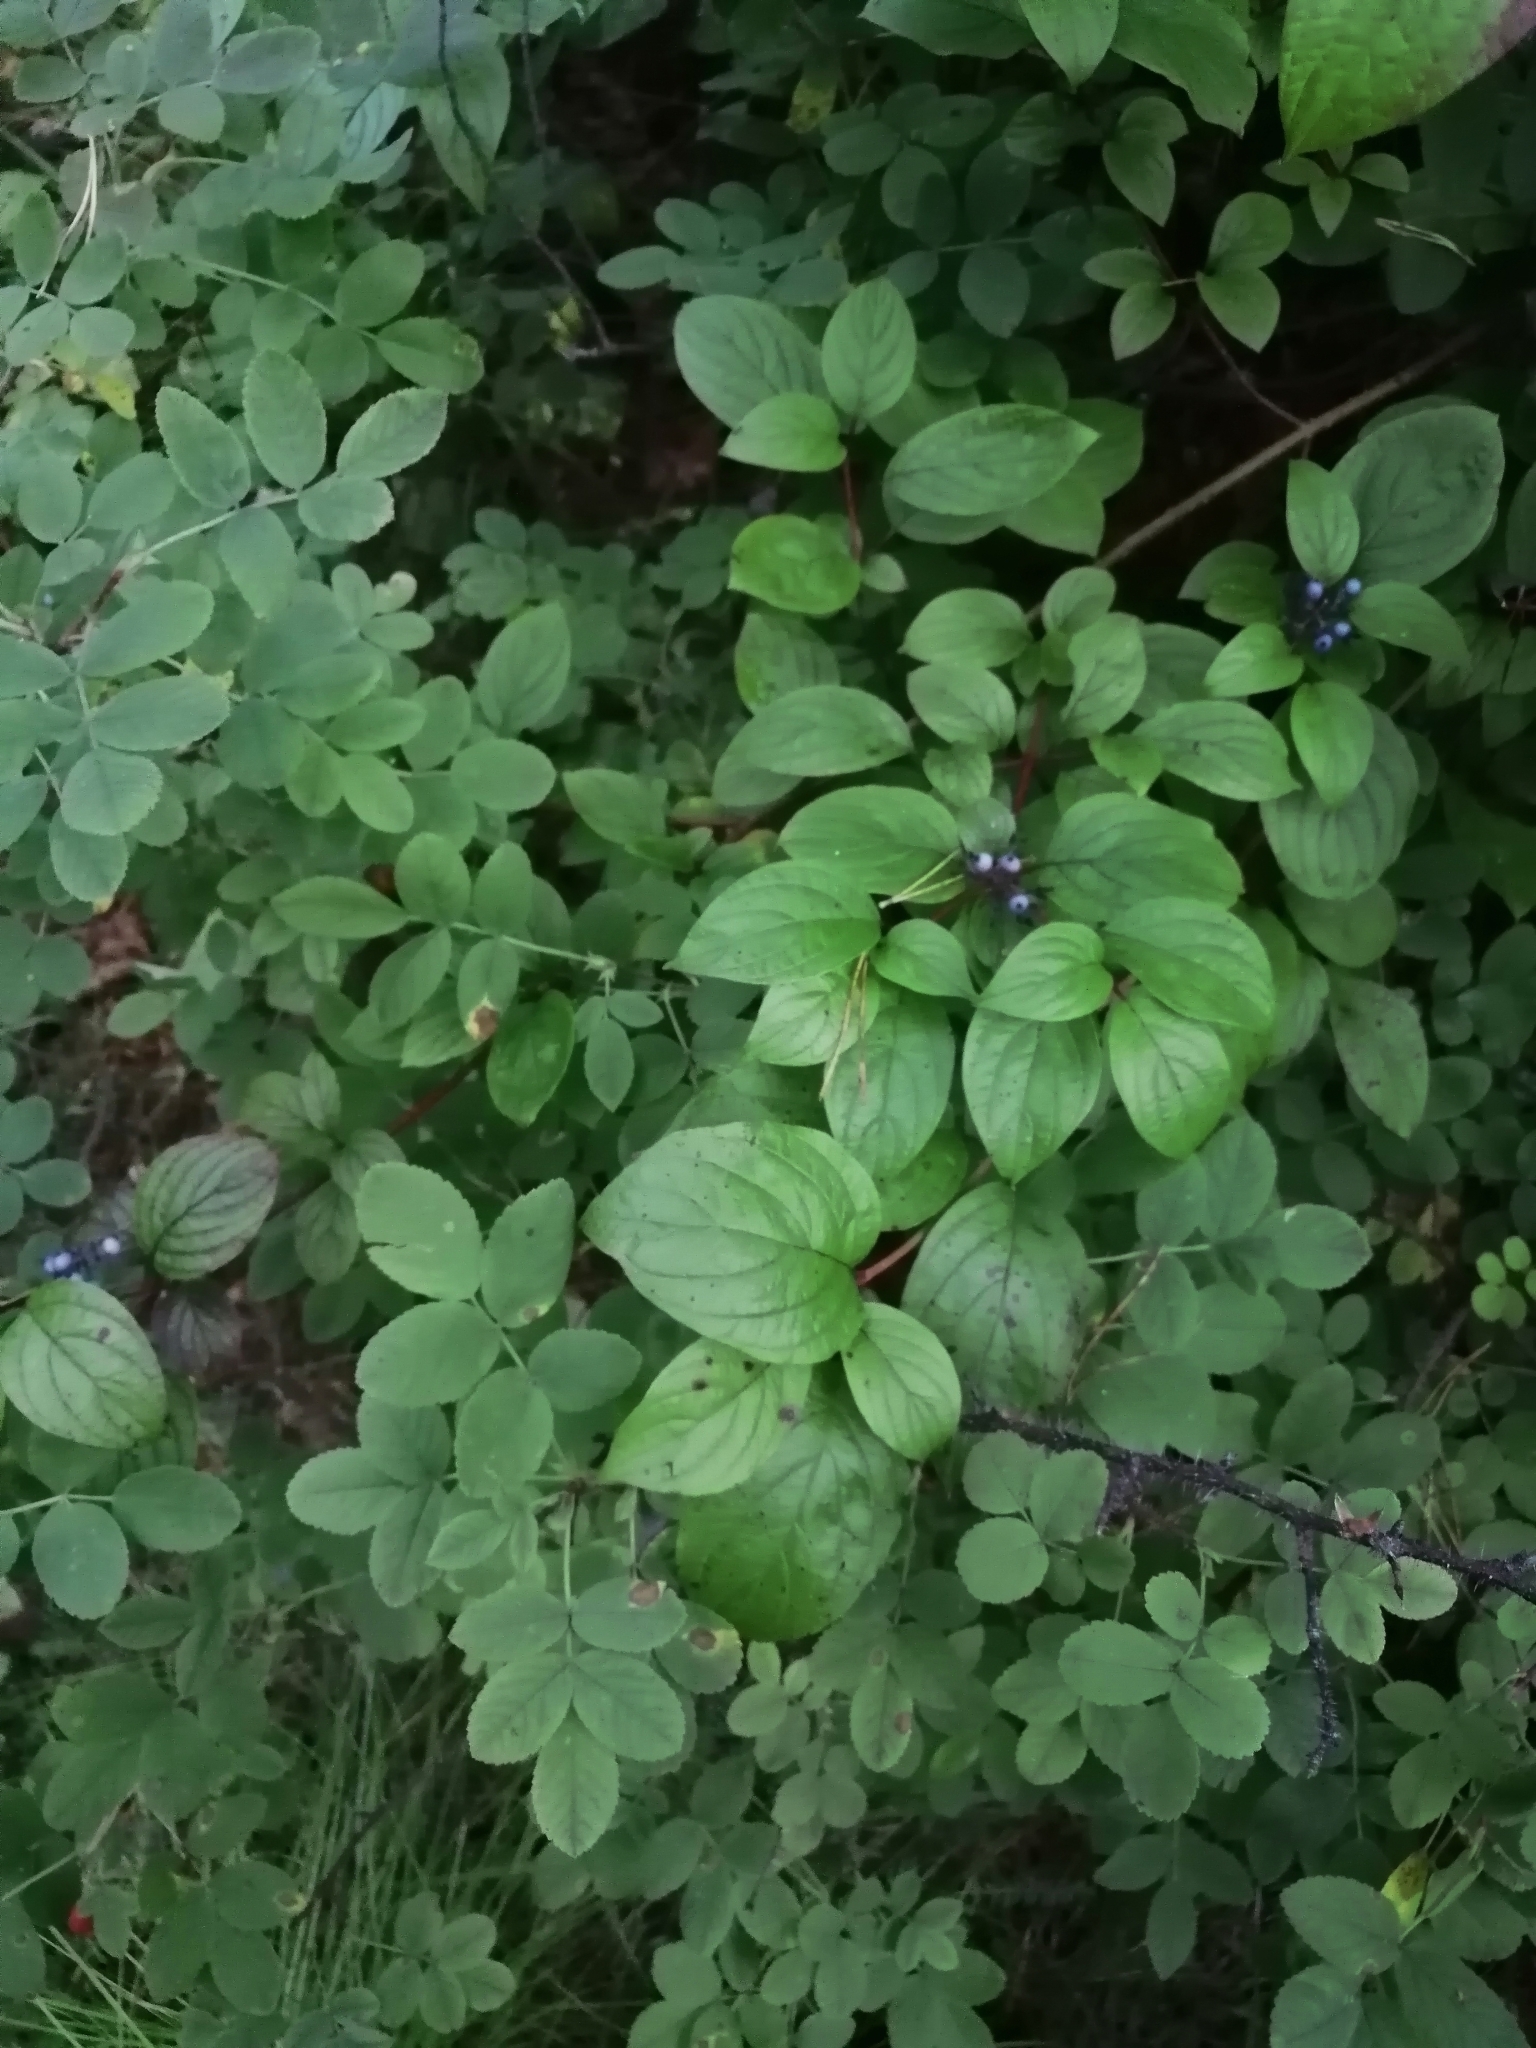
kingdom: Plantae
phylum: Tracheophyta
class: Magnoliopsida
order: Cornales
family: Cornaceae
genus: Cornus
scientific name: Cornus alba
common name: White dogwood
